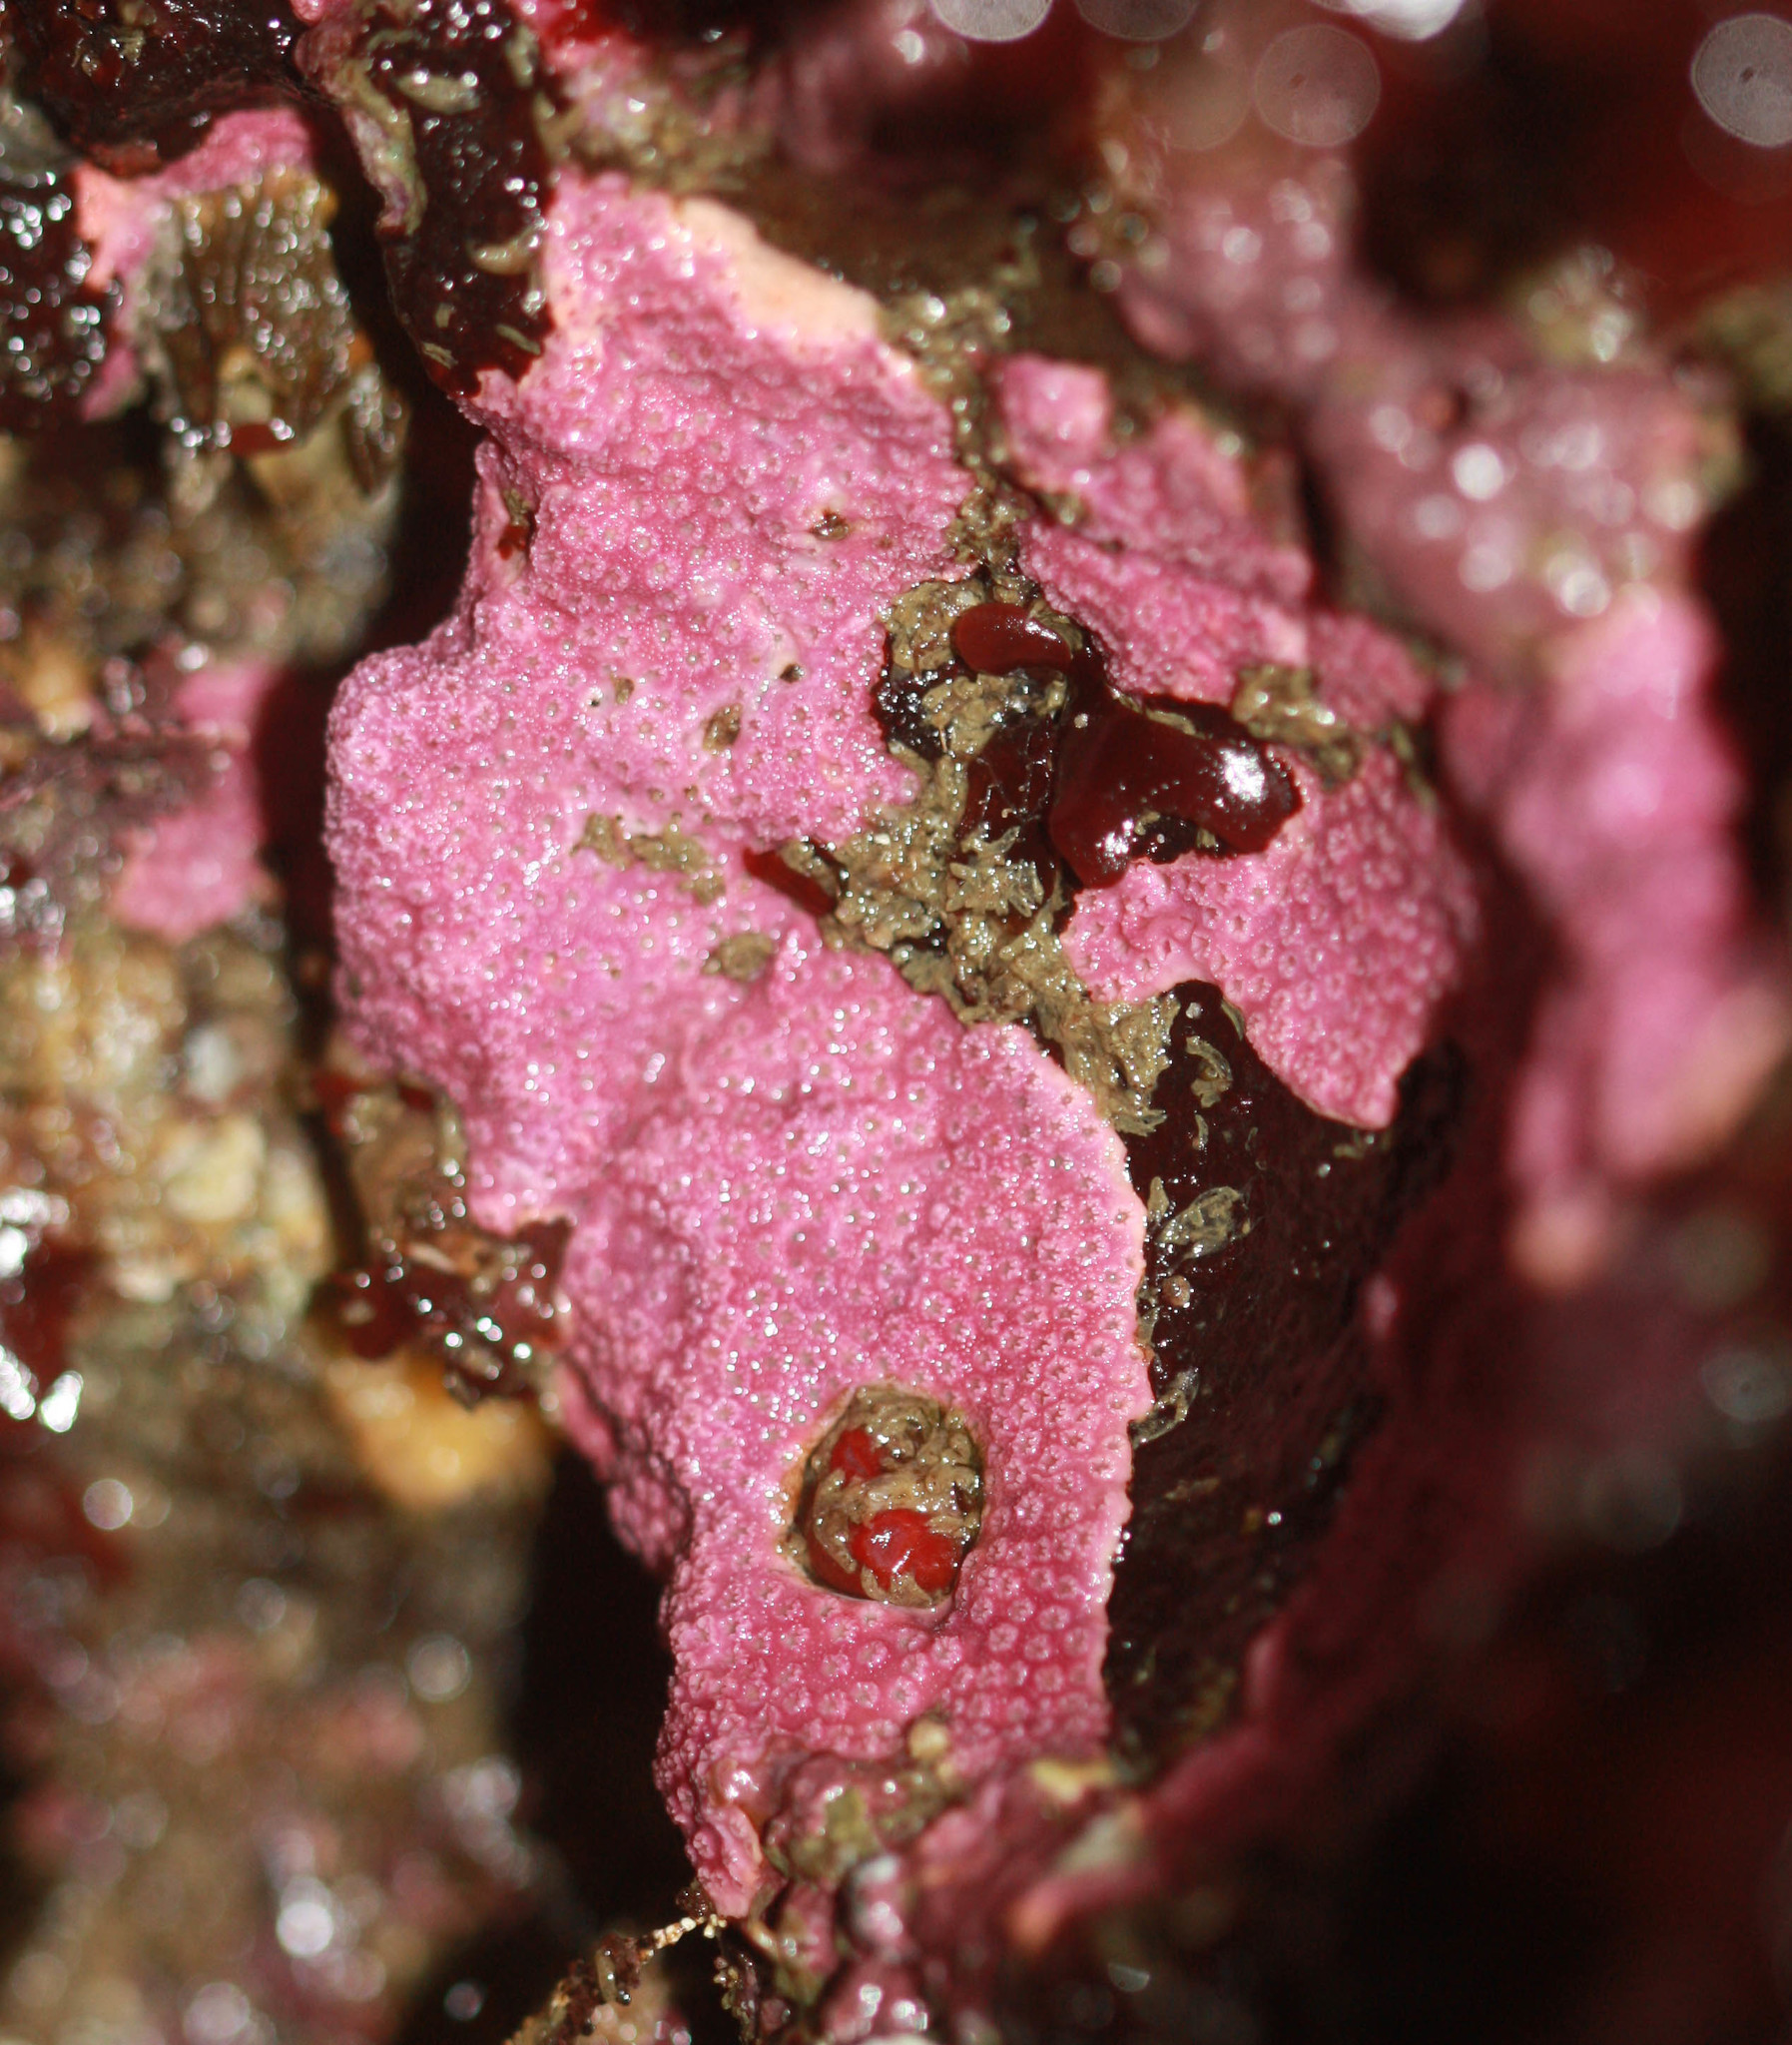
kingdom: Animalia
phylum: Cnidaria
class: Hydrozoa
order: Anthoathecata
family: Stylasteridae
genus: Stylantheca
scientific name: Stylantheca papillosa
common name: Corrugated lace hydrocoral
